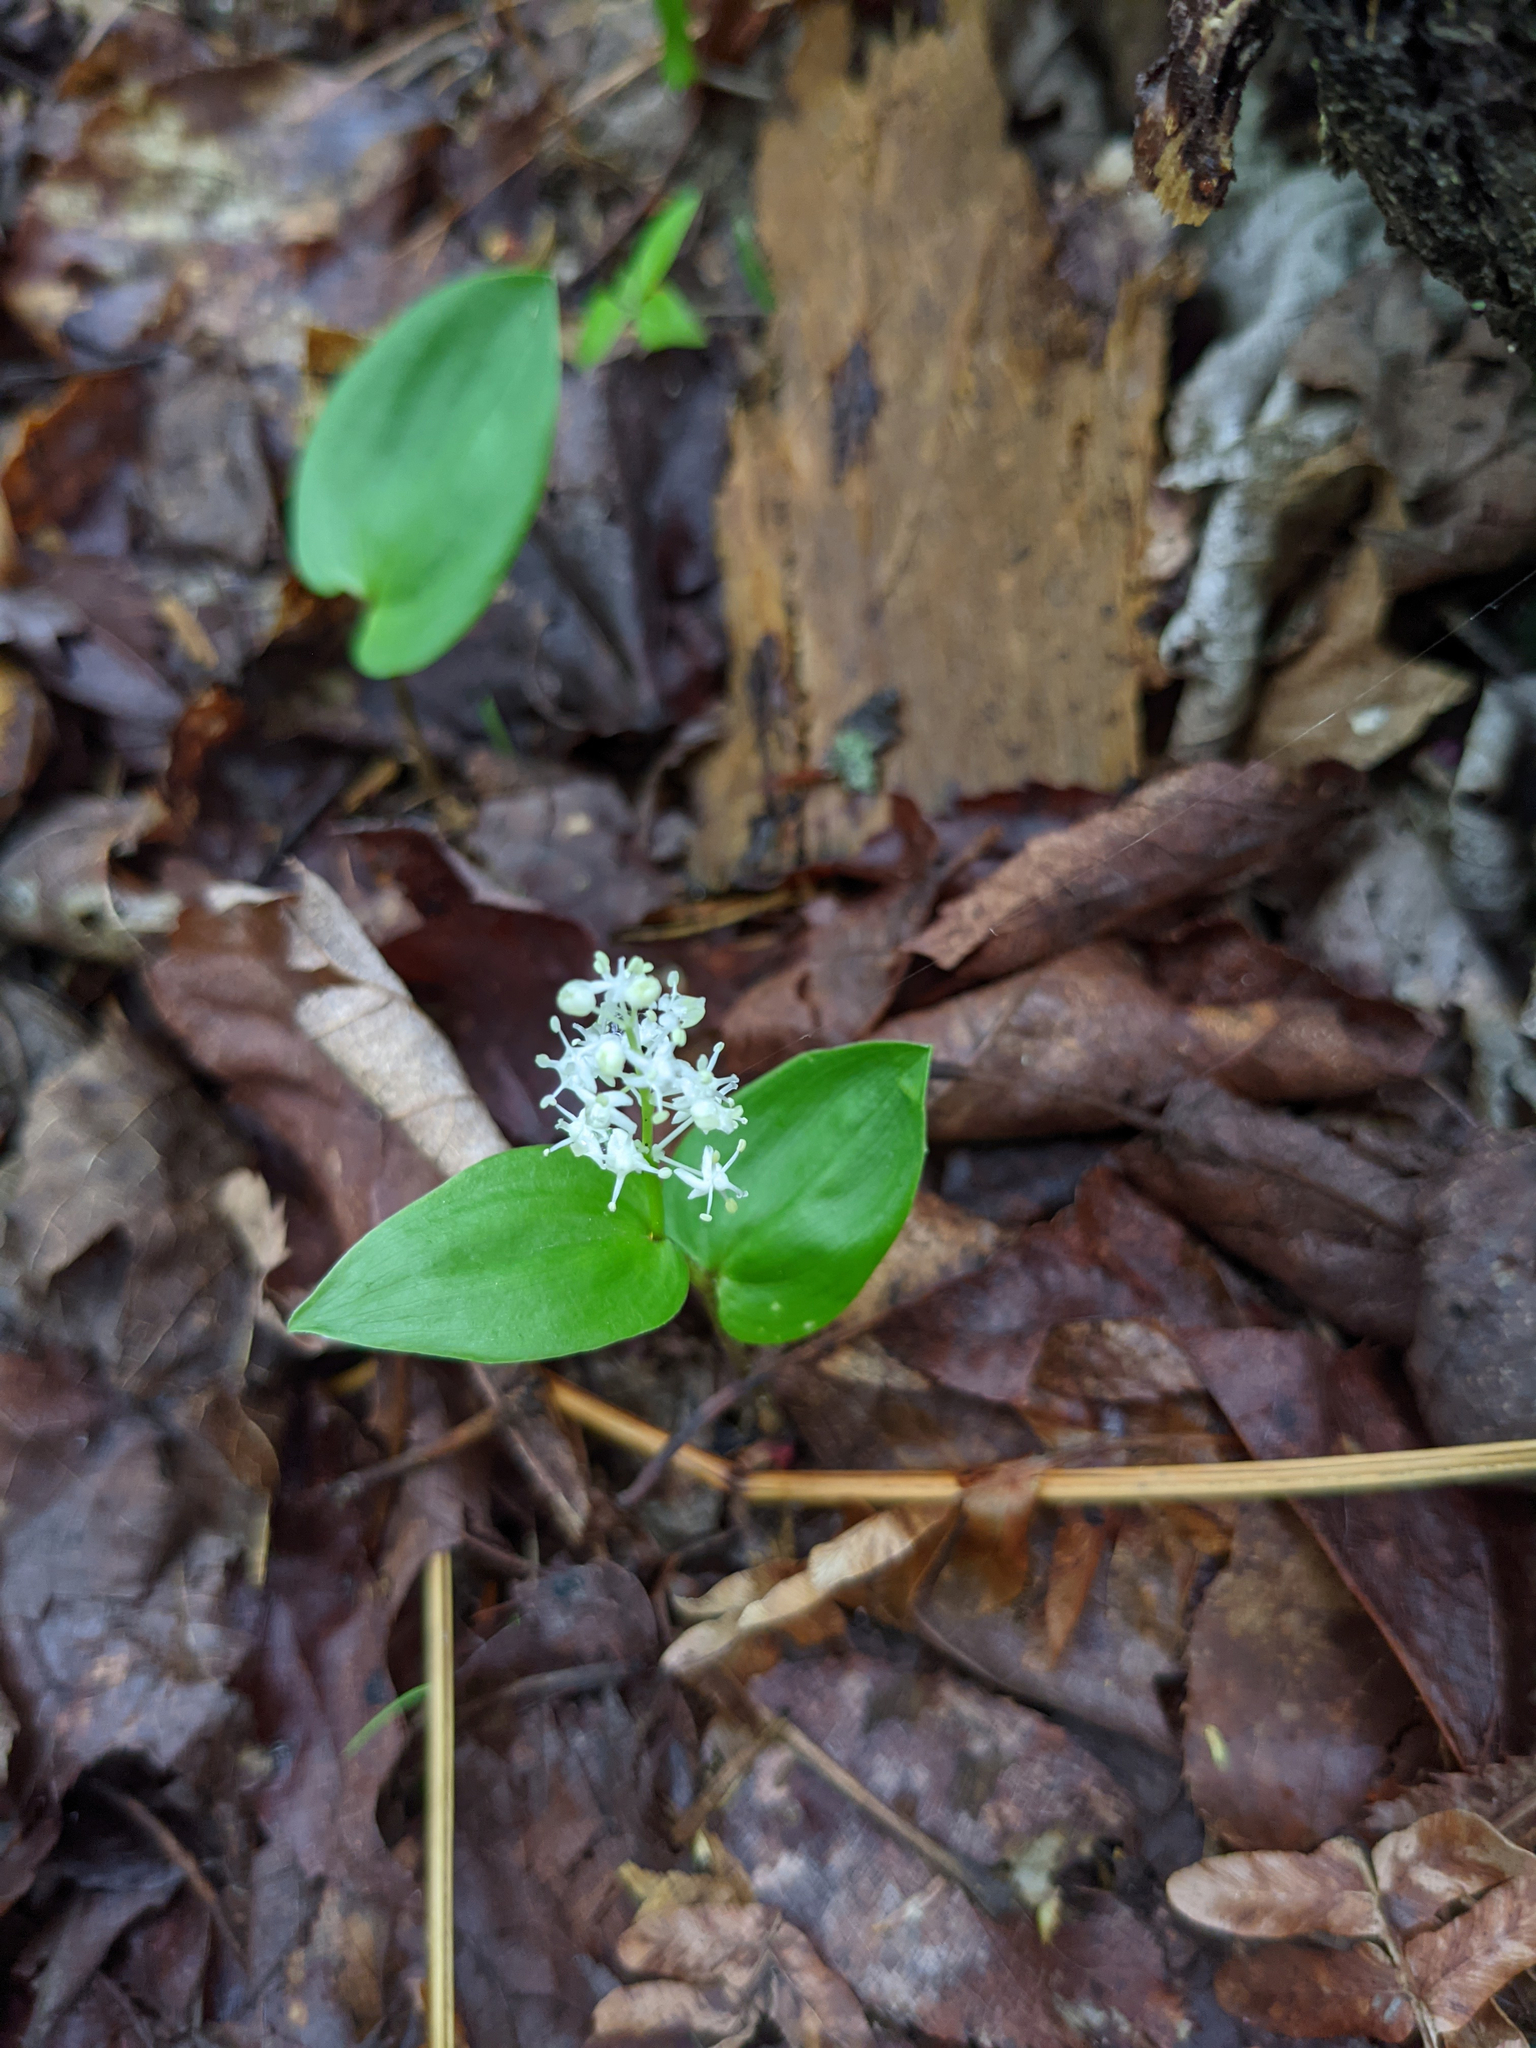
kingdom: Plantae
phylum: Tracheophyta
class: Liliopsida
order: Asparagales
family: Asparagaceae
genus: Maianthemum
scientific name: Maianthemum canadense
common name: False lily-of-the-valley
